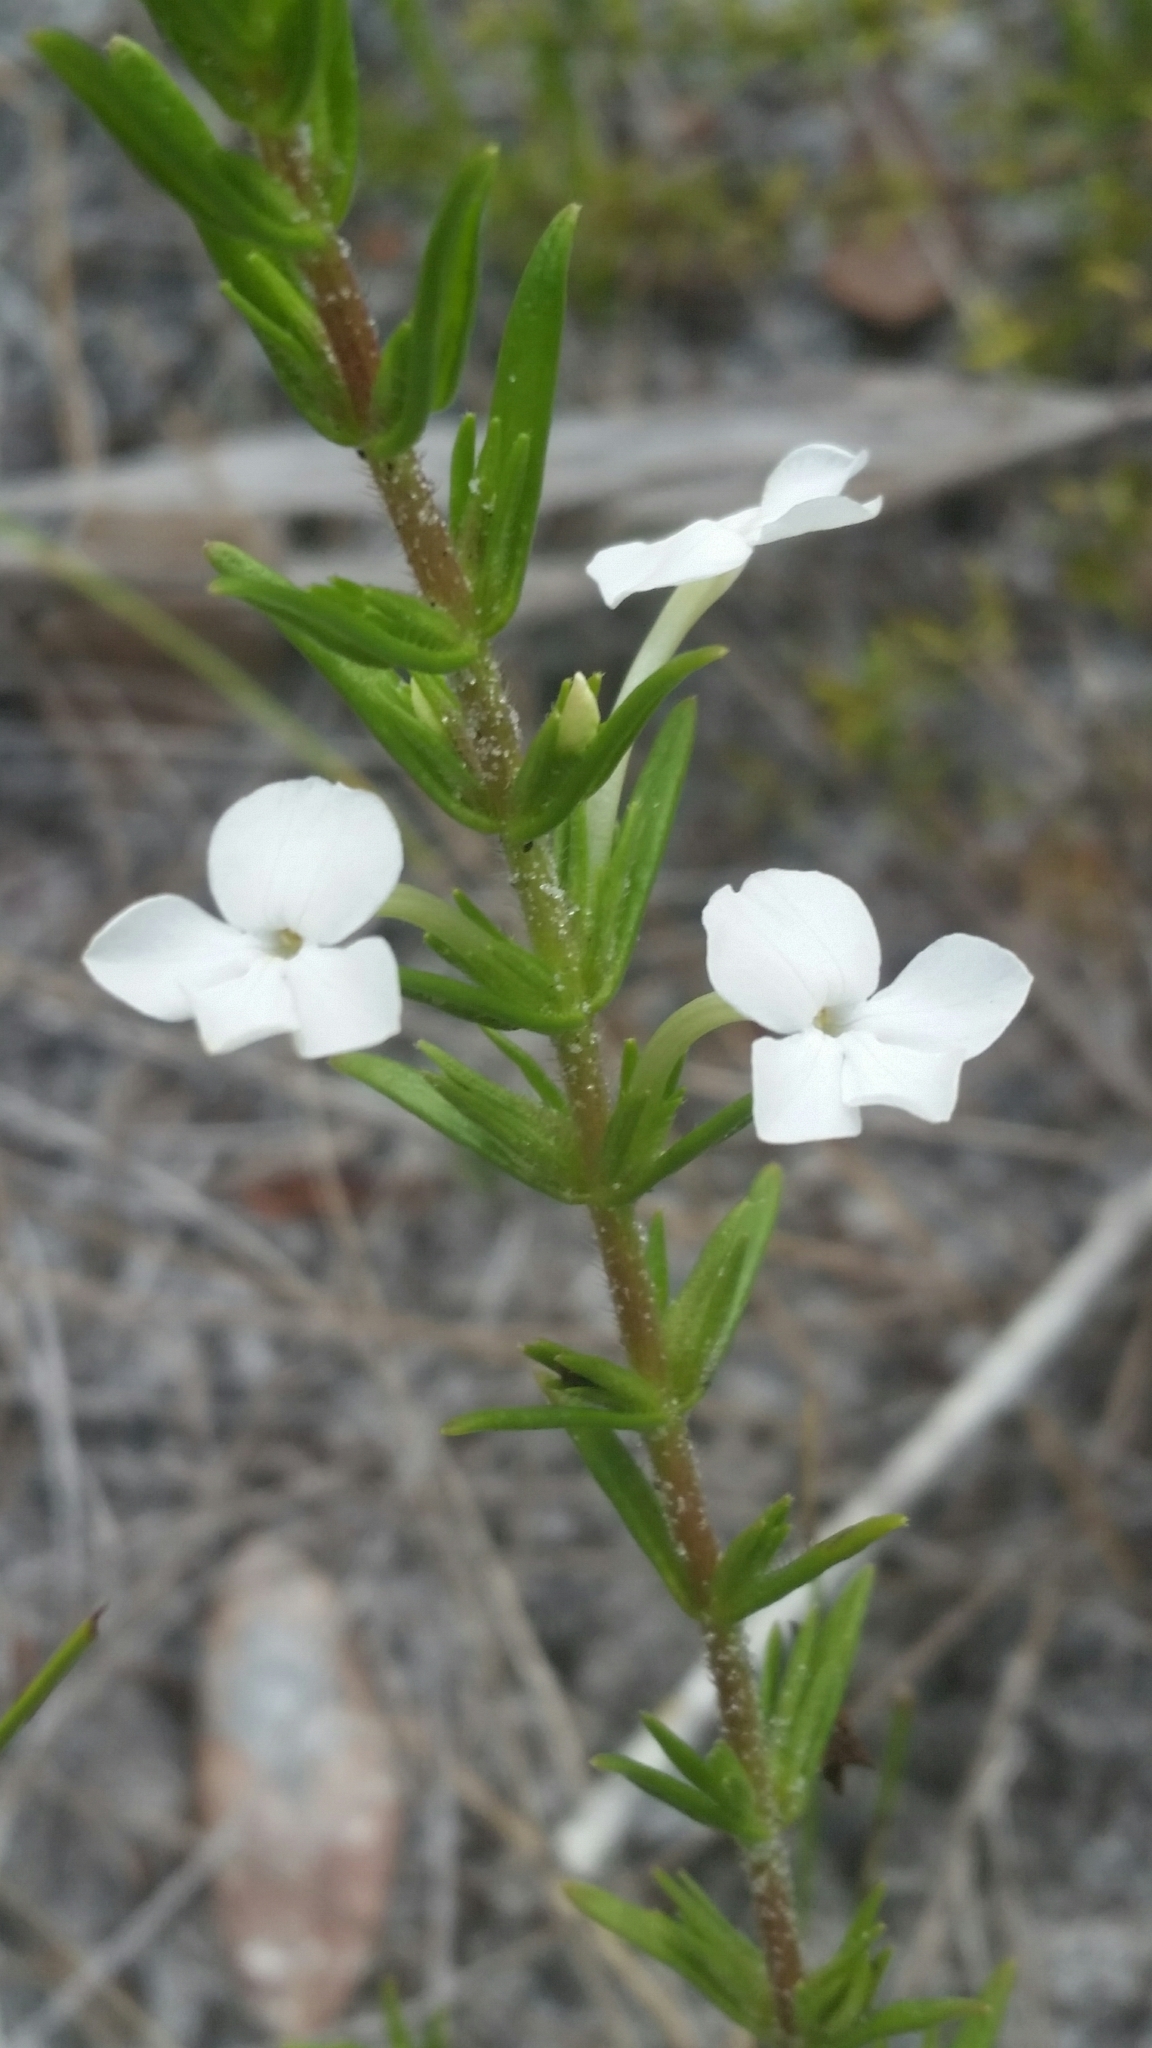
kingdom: Plantae
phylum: Tracheophyta
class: Magnoliopsida
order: Lamiales
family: Plantaginaceae
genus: Gratiola
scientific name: Gratiola hispida
